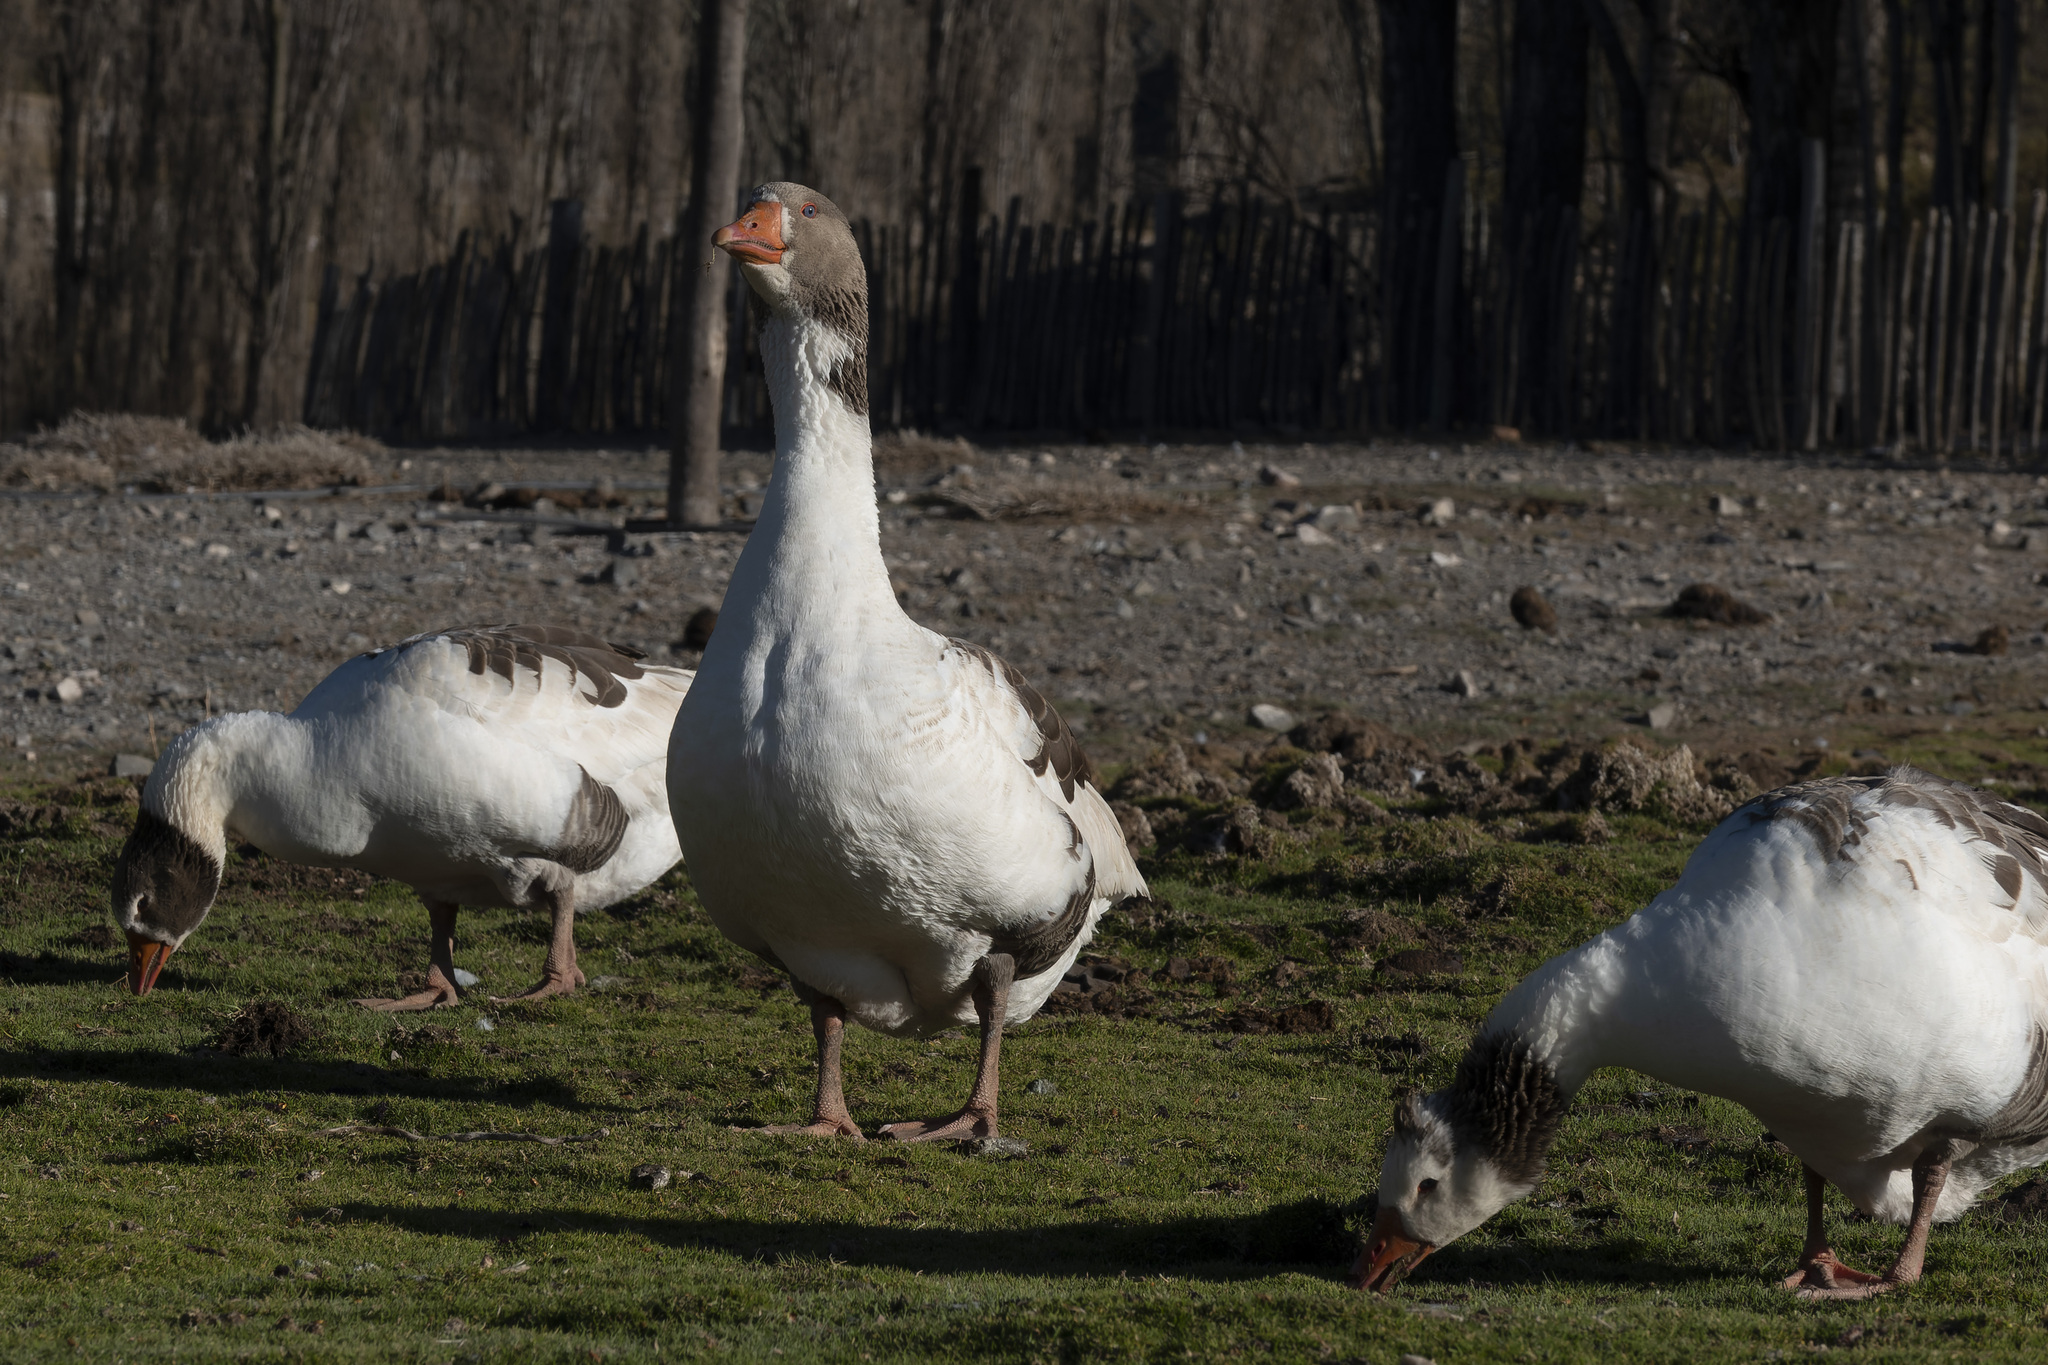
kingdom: Animalia
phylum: Chordata
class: Aves
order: Anseriformes
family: Anatidae
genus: Anser
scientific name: Anser anser
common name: Greylag goose
